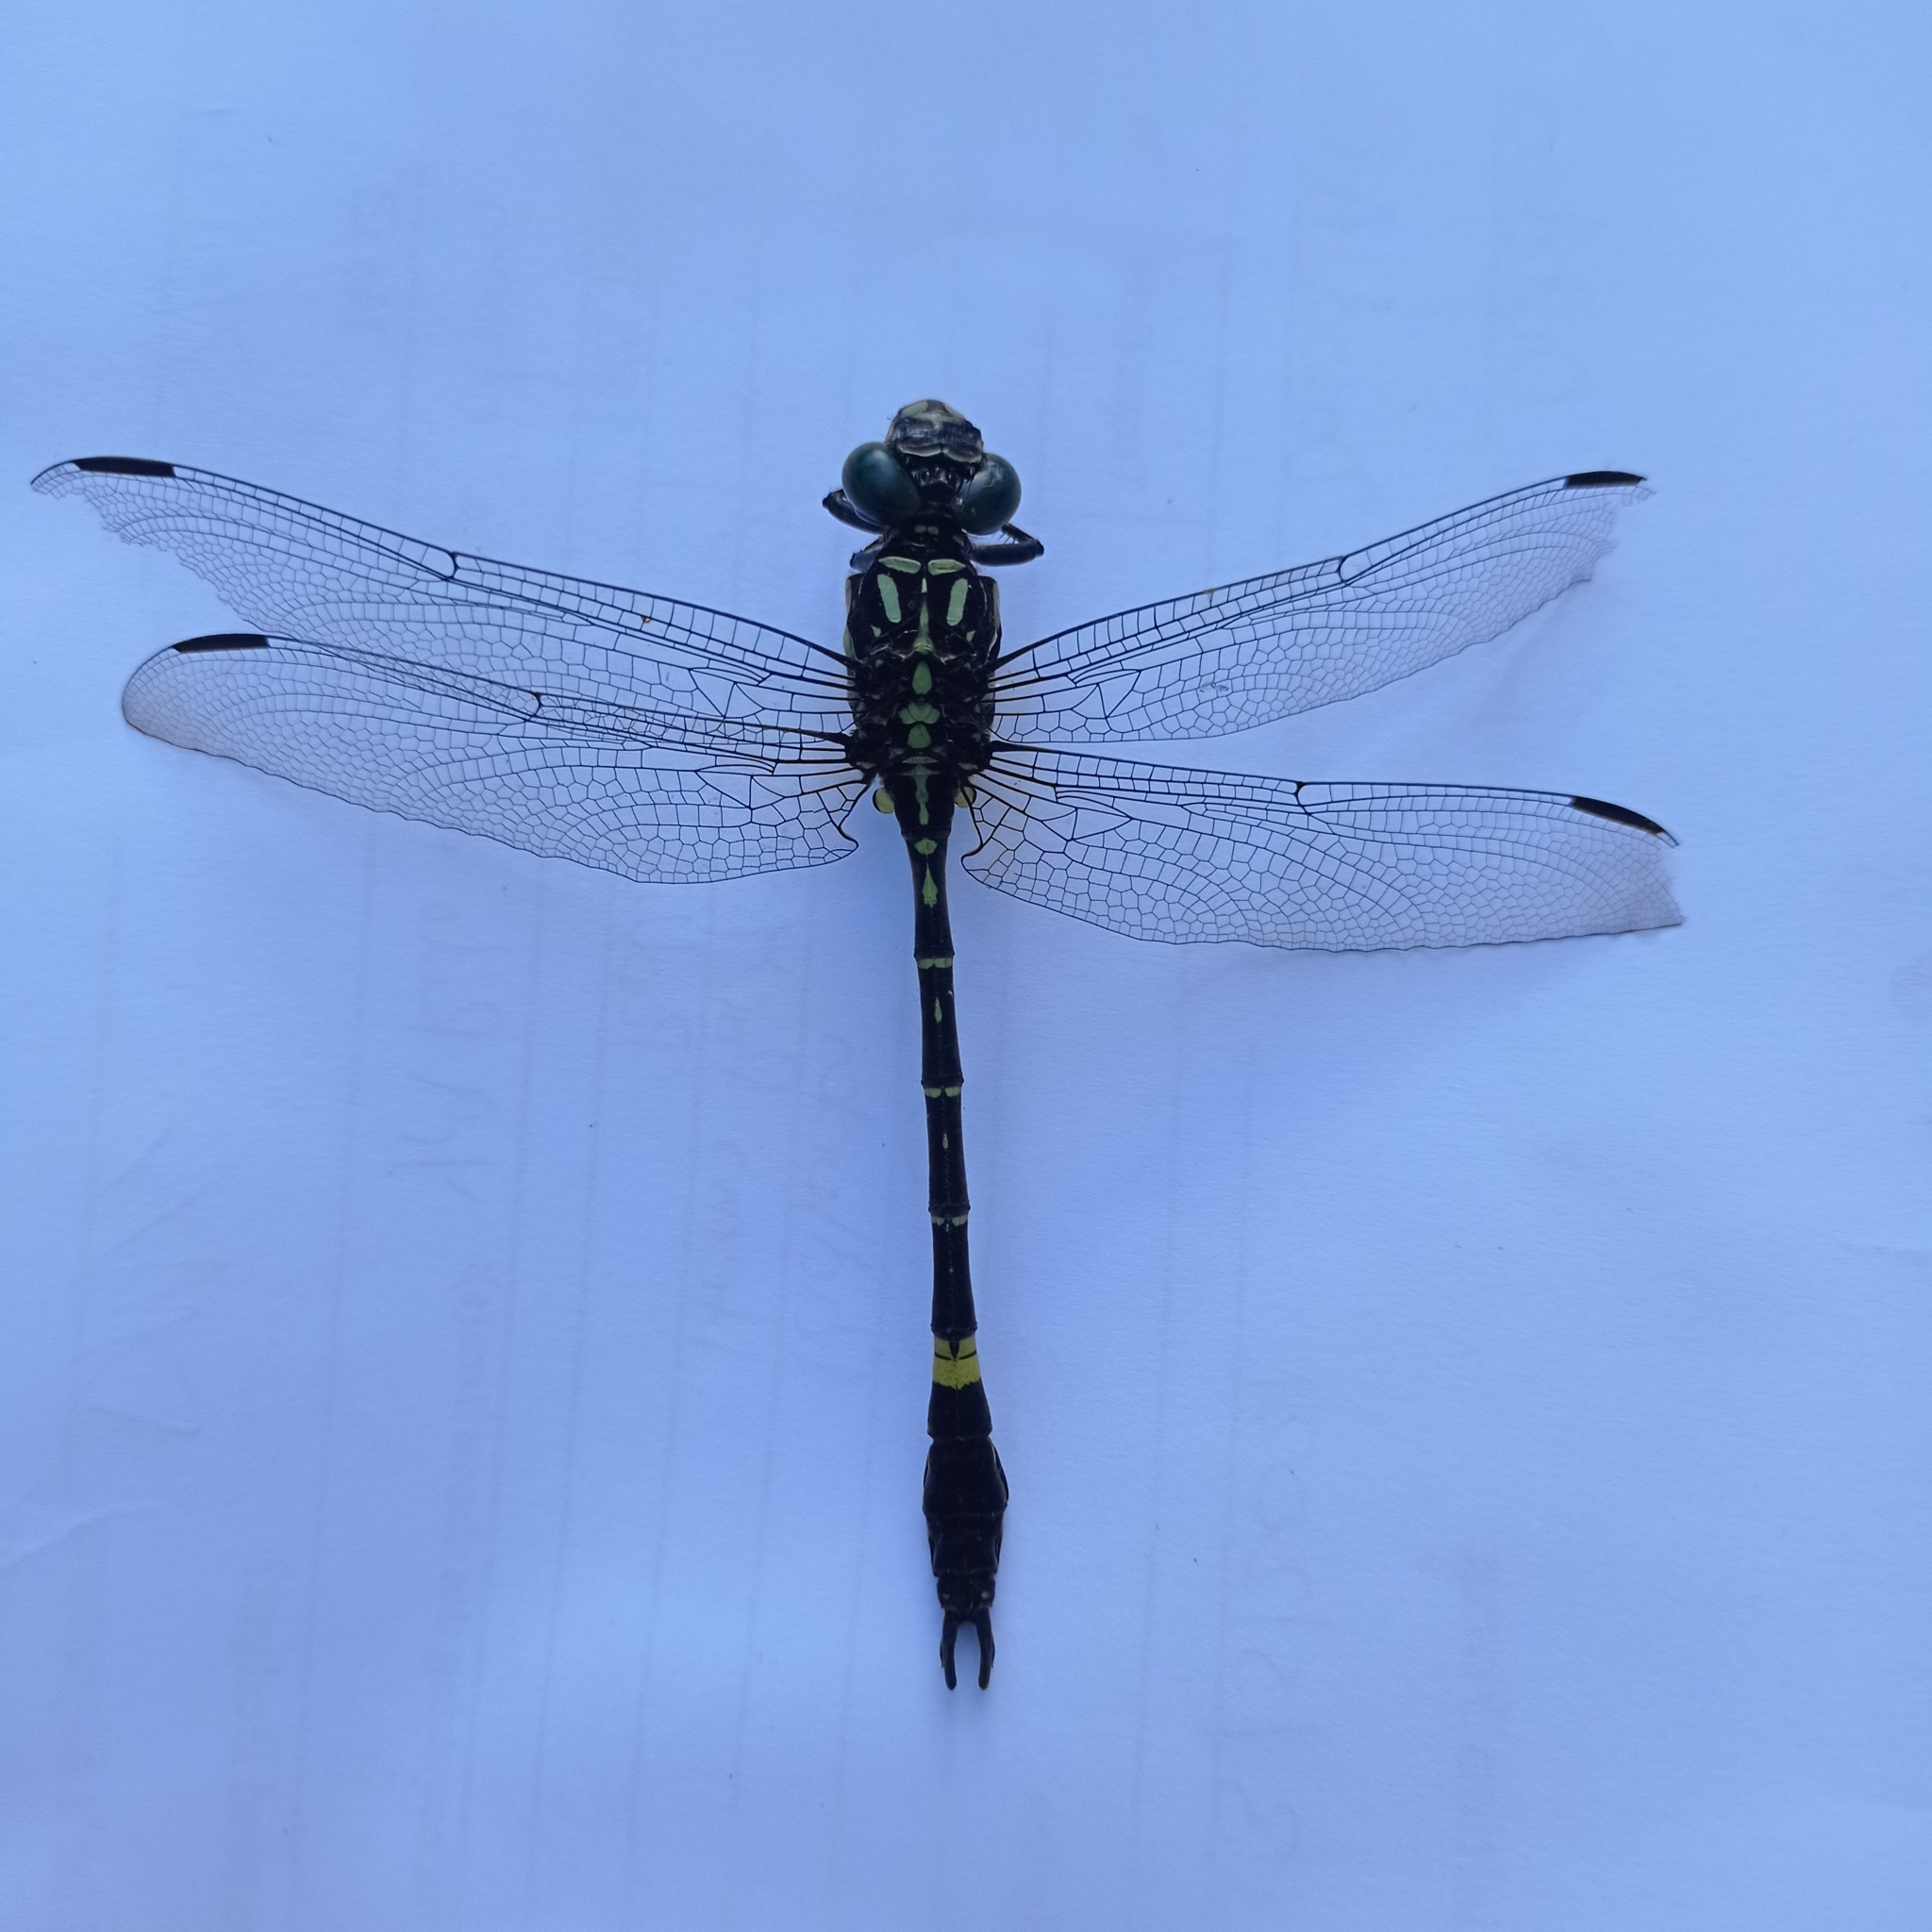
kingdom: Animalia
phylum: Arthropoda
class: Insecta
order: Odonata
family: Gomphidae
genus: Megalogomphus
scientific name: Megalogomphus sommeri
